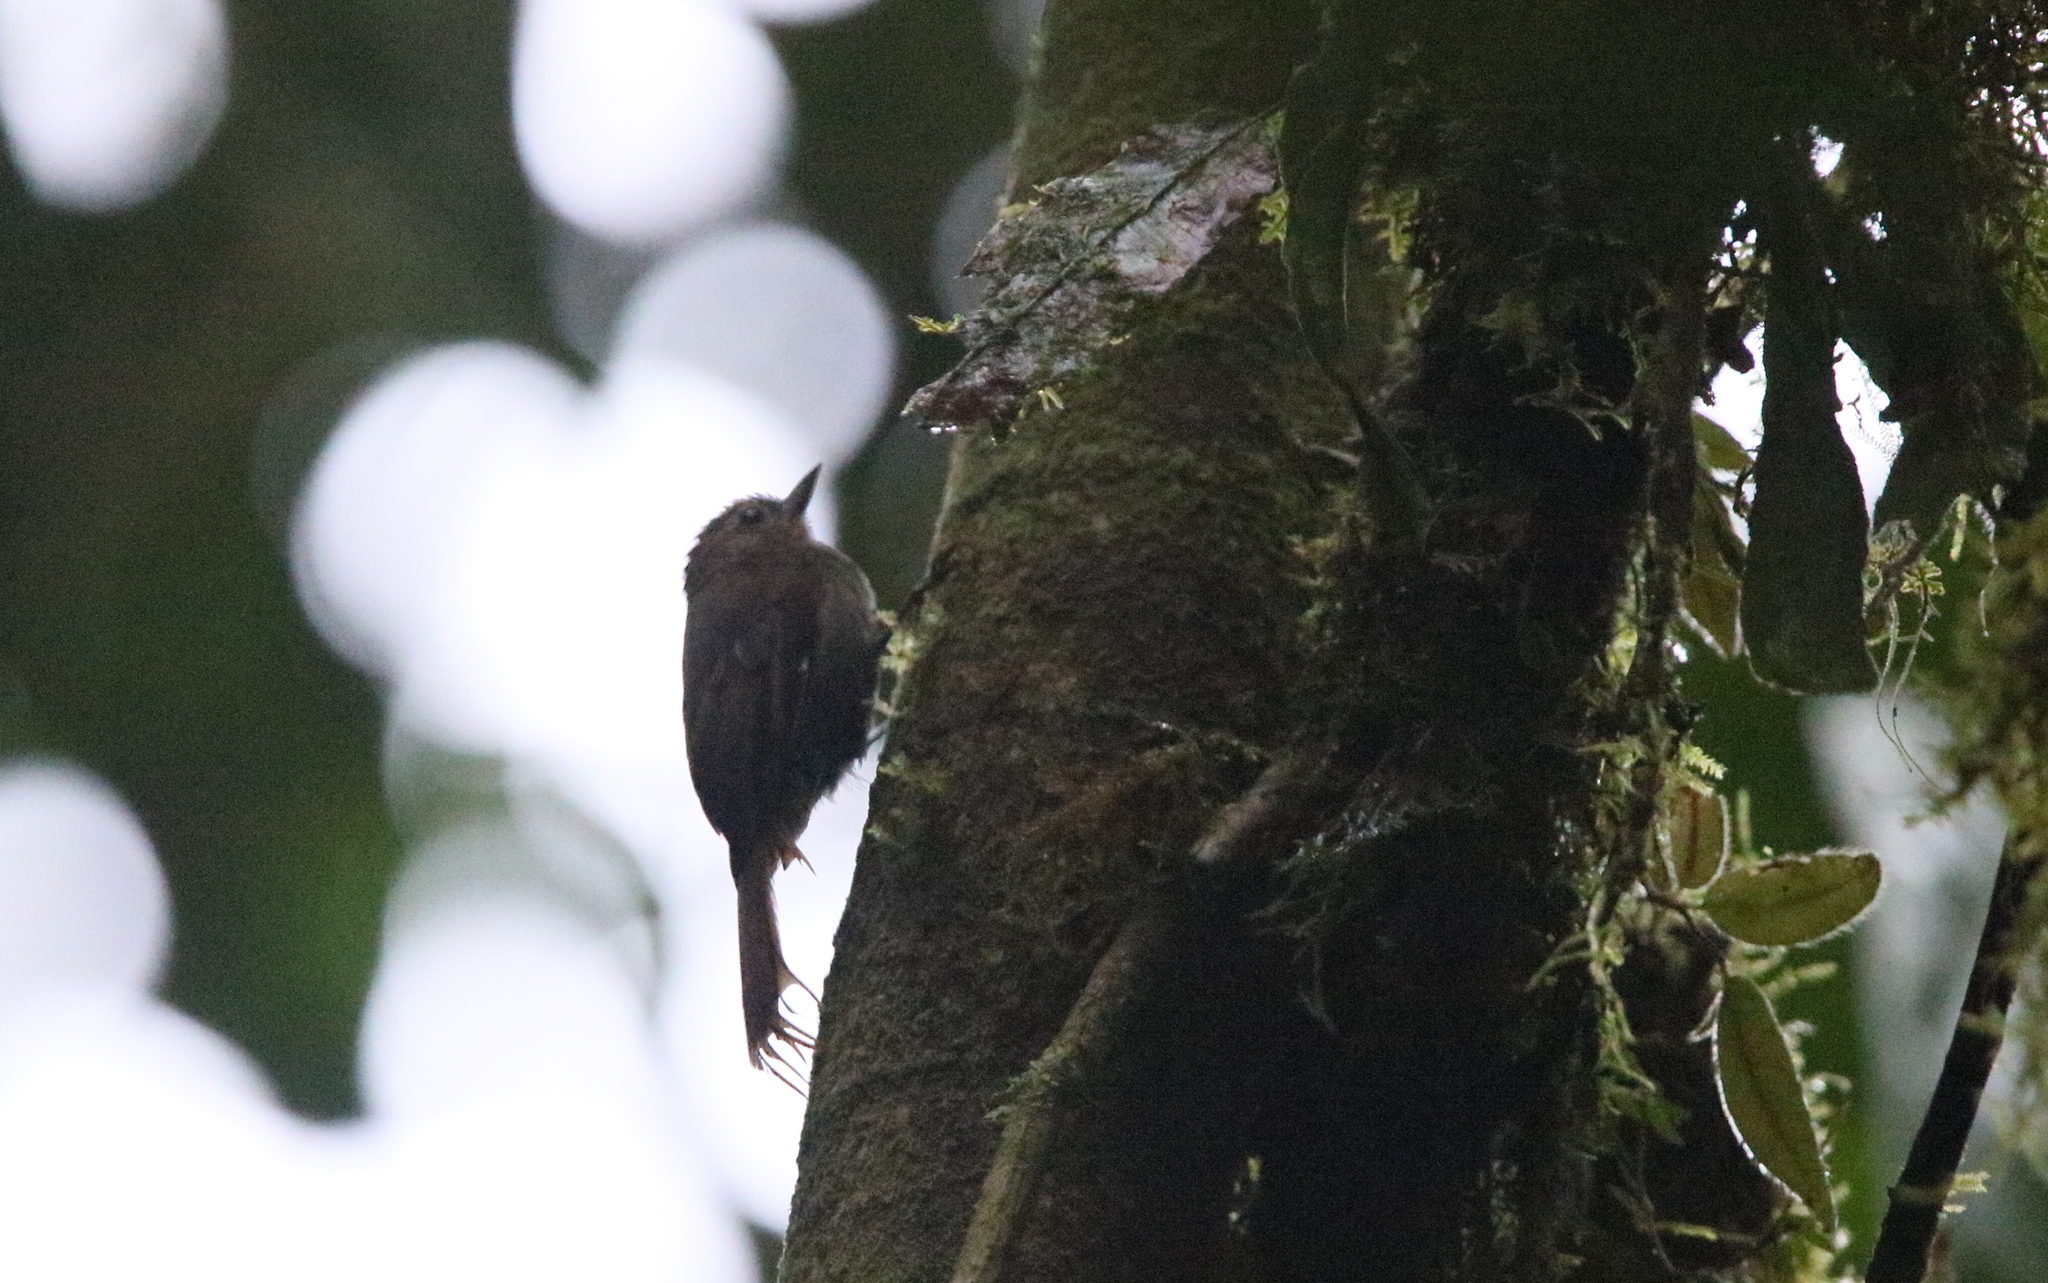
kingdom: Animalia
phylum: Chordata
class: Aves
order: Passeriformes
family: Furnariidae
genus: Glyphorynchus
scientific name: Glyphorynchus spirurus
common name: Wedge-billed woodcreeper
